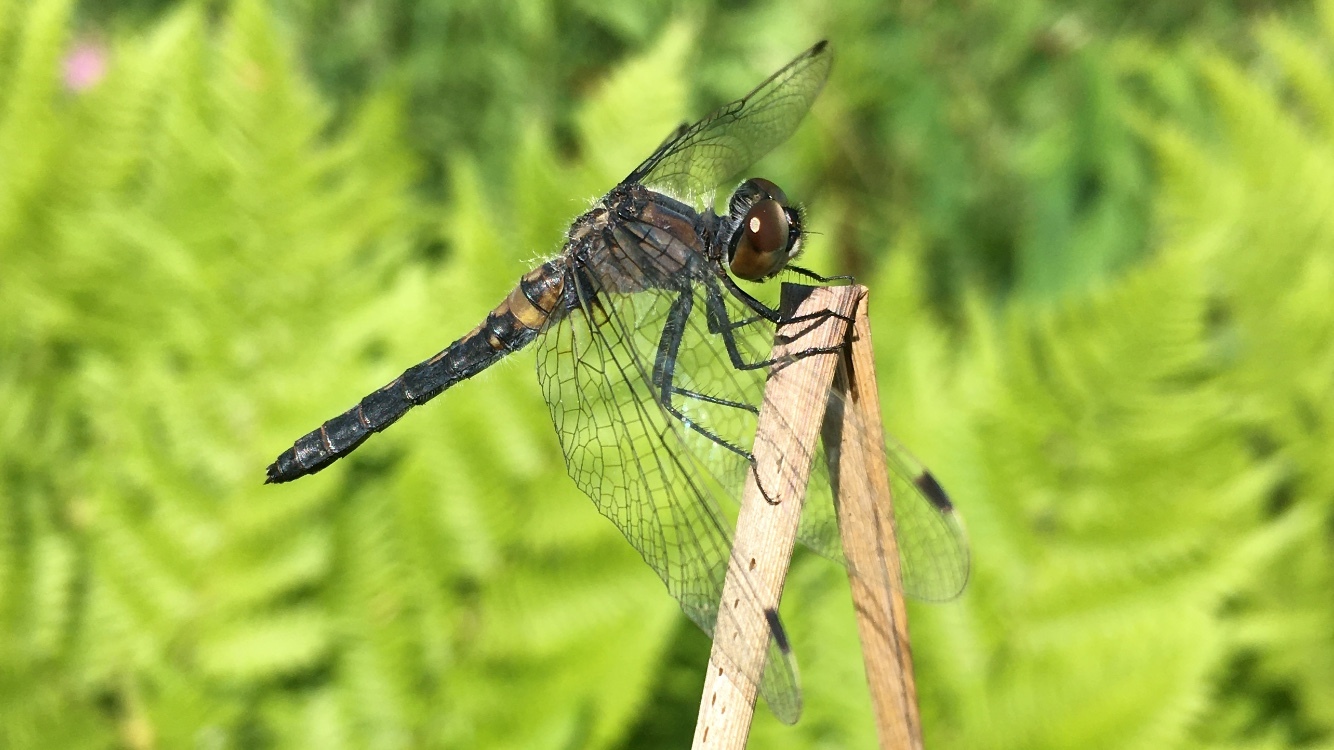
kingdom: Animalia
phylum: Arthropoda
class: Insecta
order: Odonata
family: Libellulidae
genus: Leucorrhinia
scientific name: Leucorrhinia frigida
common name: Frosted whiteface
